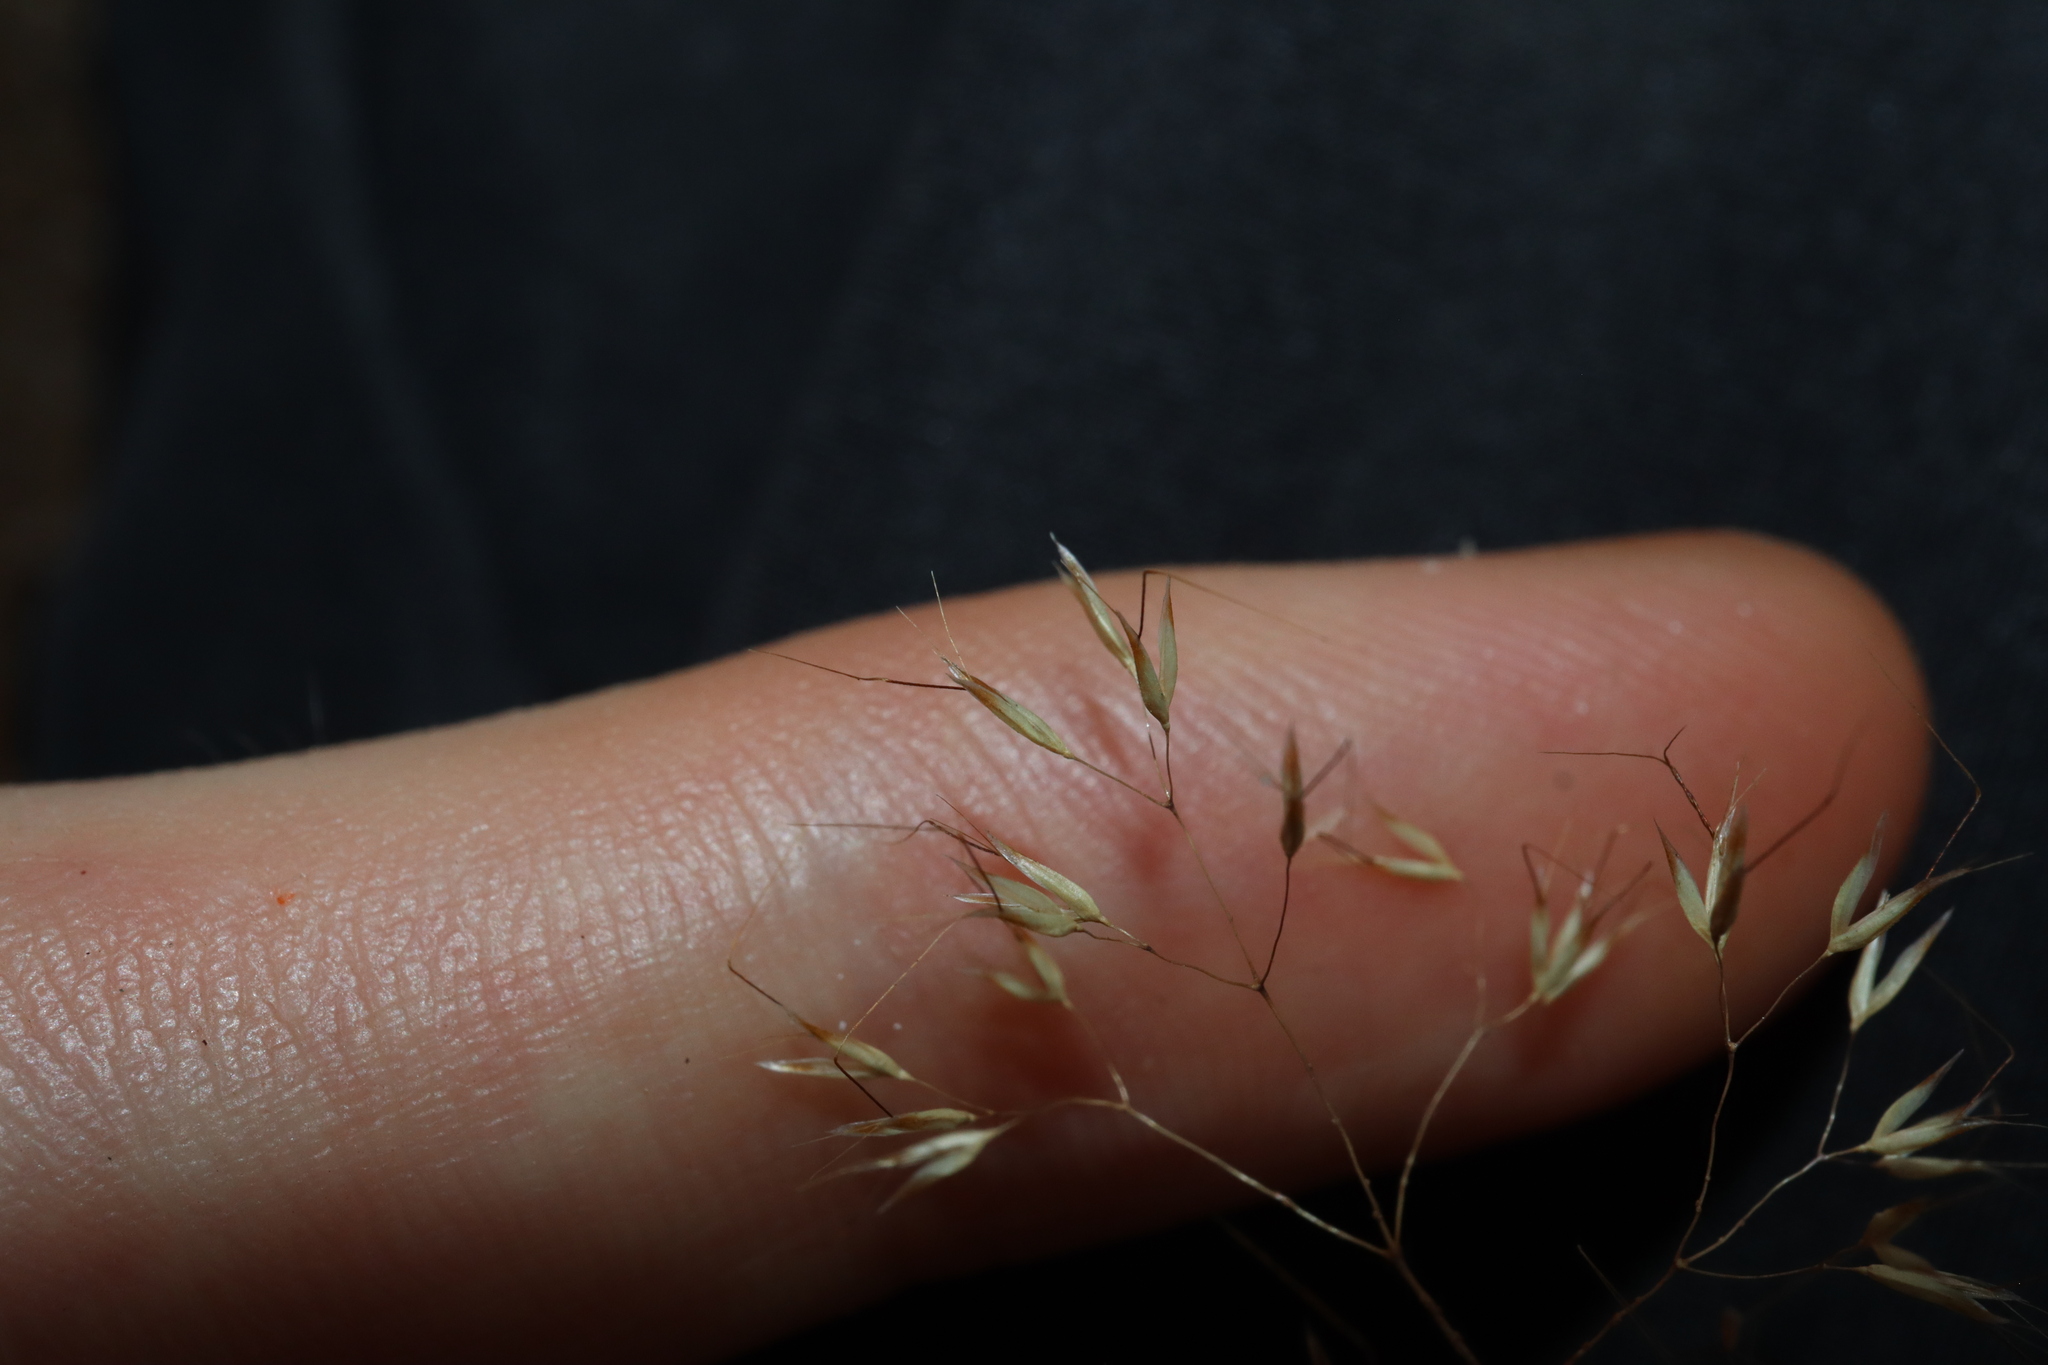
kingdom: Plantae
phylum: Tracheophyta
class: Liliopsida
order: Poales
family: Poaceae
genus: Pentameris
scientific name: Pentameris airoides
